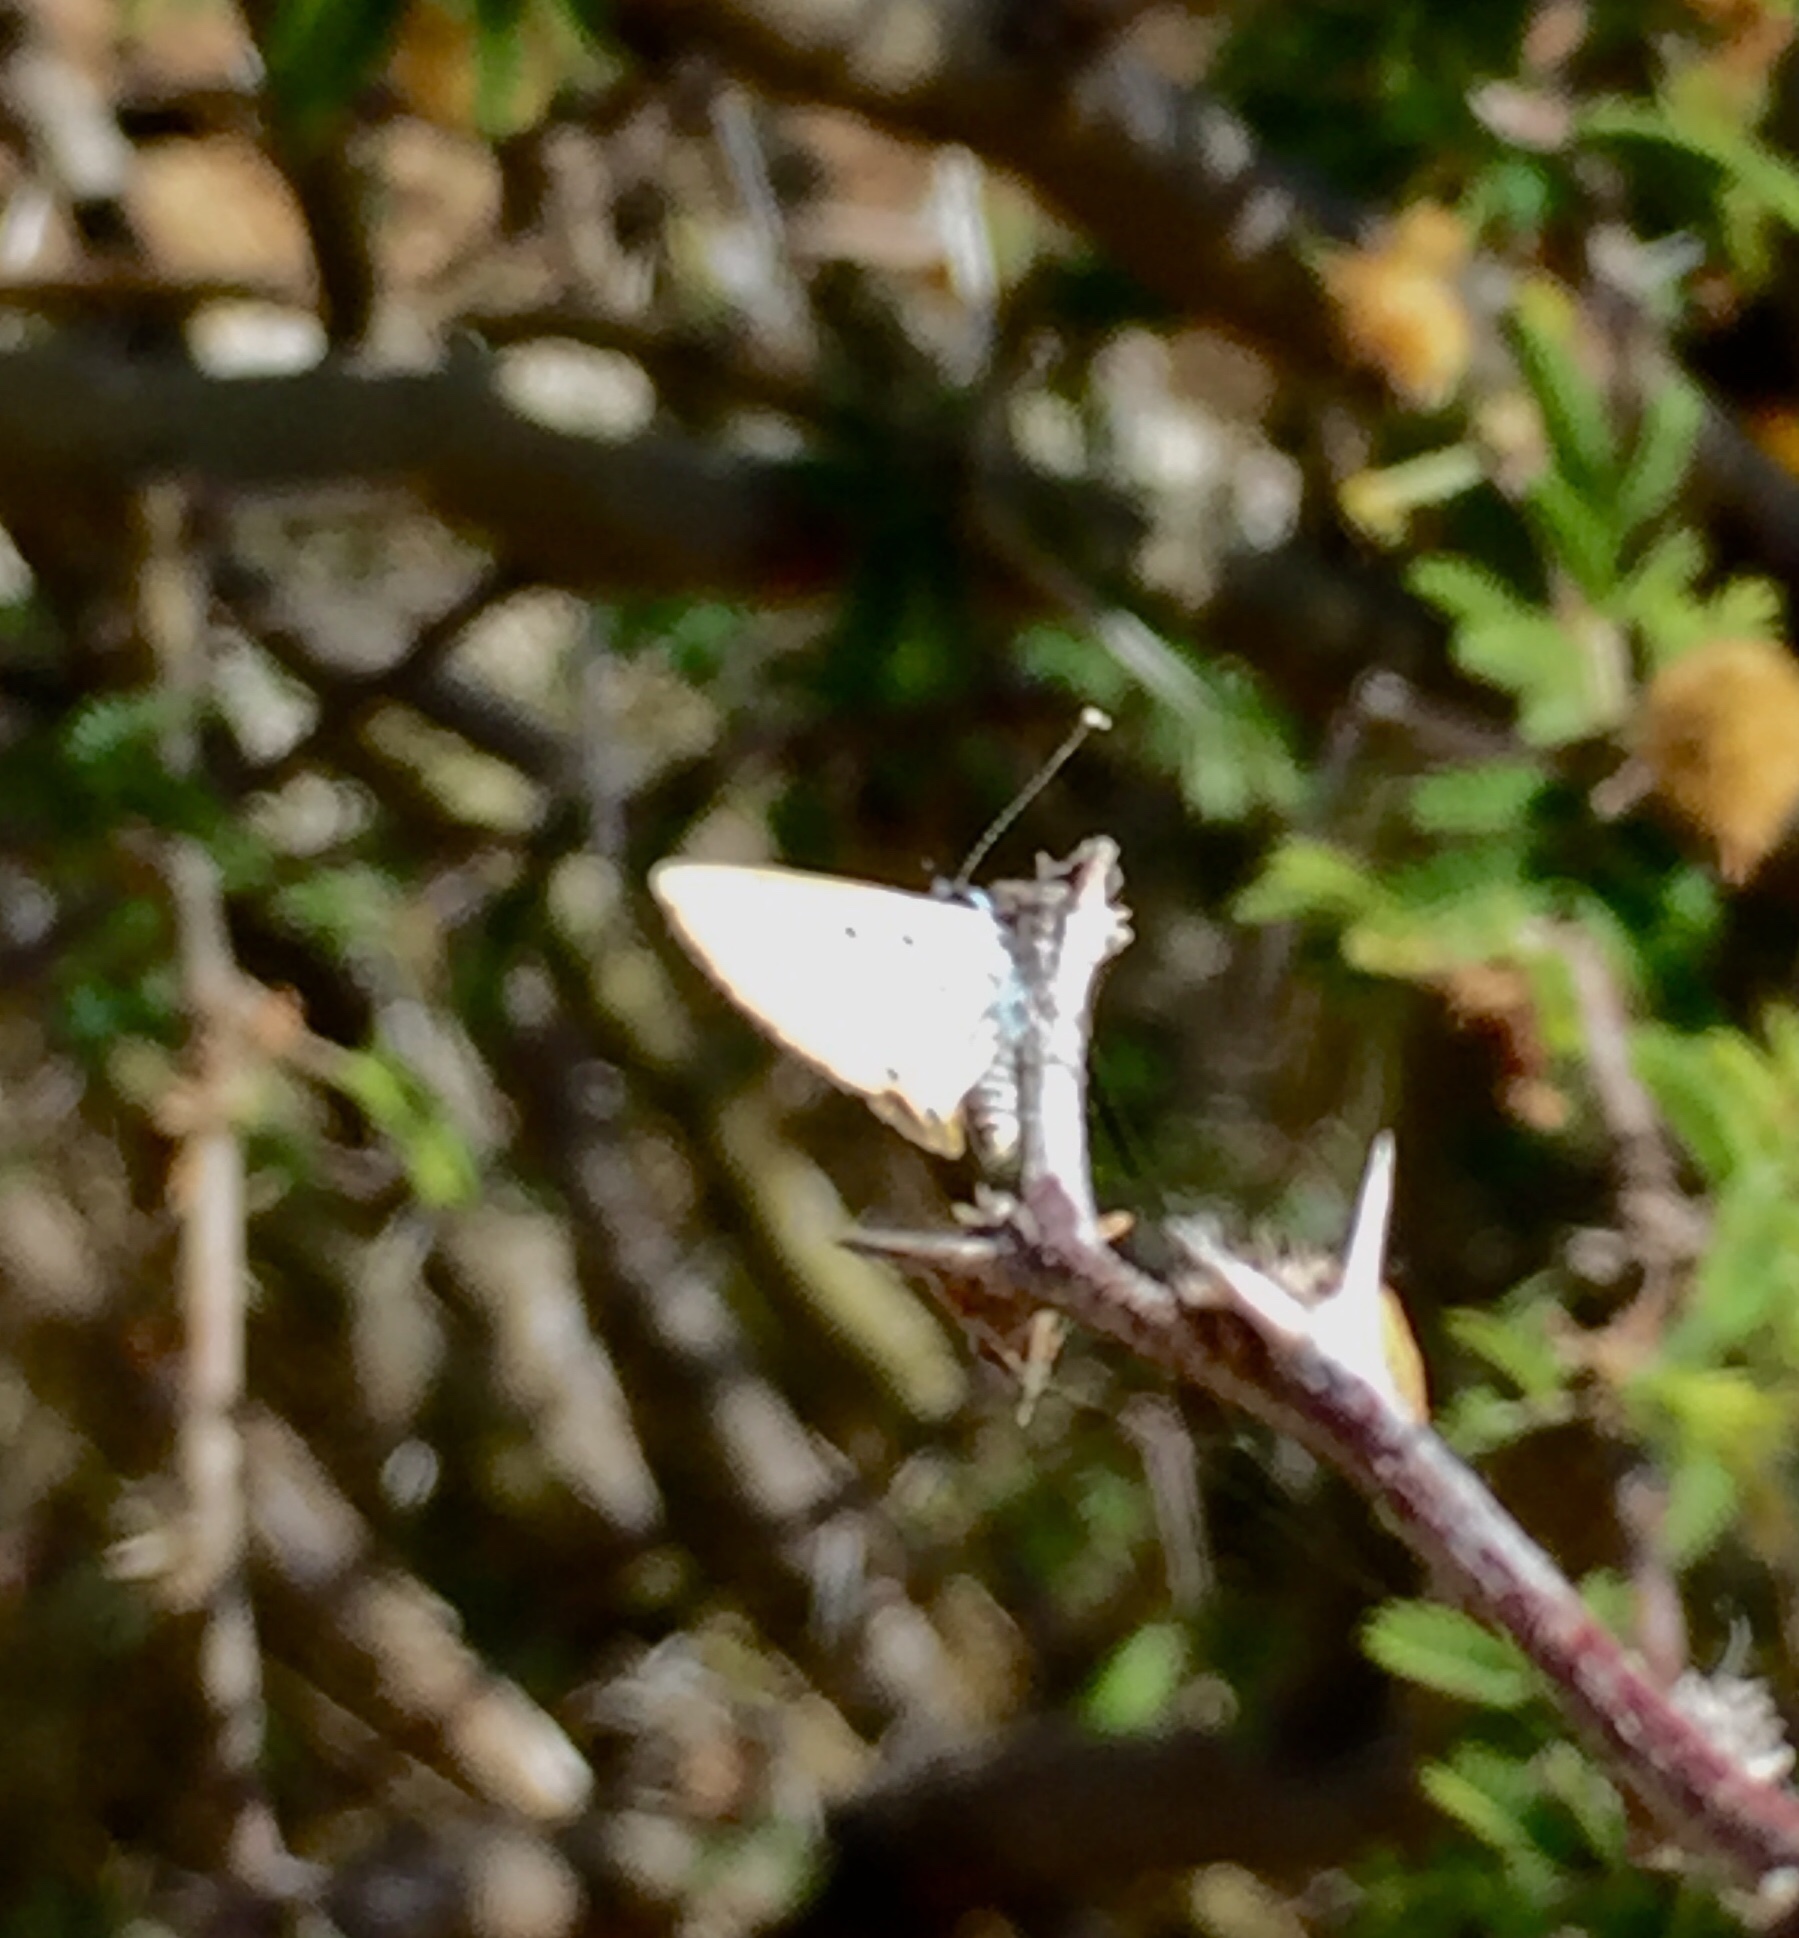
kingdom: Animalia
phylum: Arthropoda
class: Insecta
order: Lepidoptera
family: Lycaenidae
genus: Azanus
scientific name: Azanus ubaldus
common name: Desert babul blue
